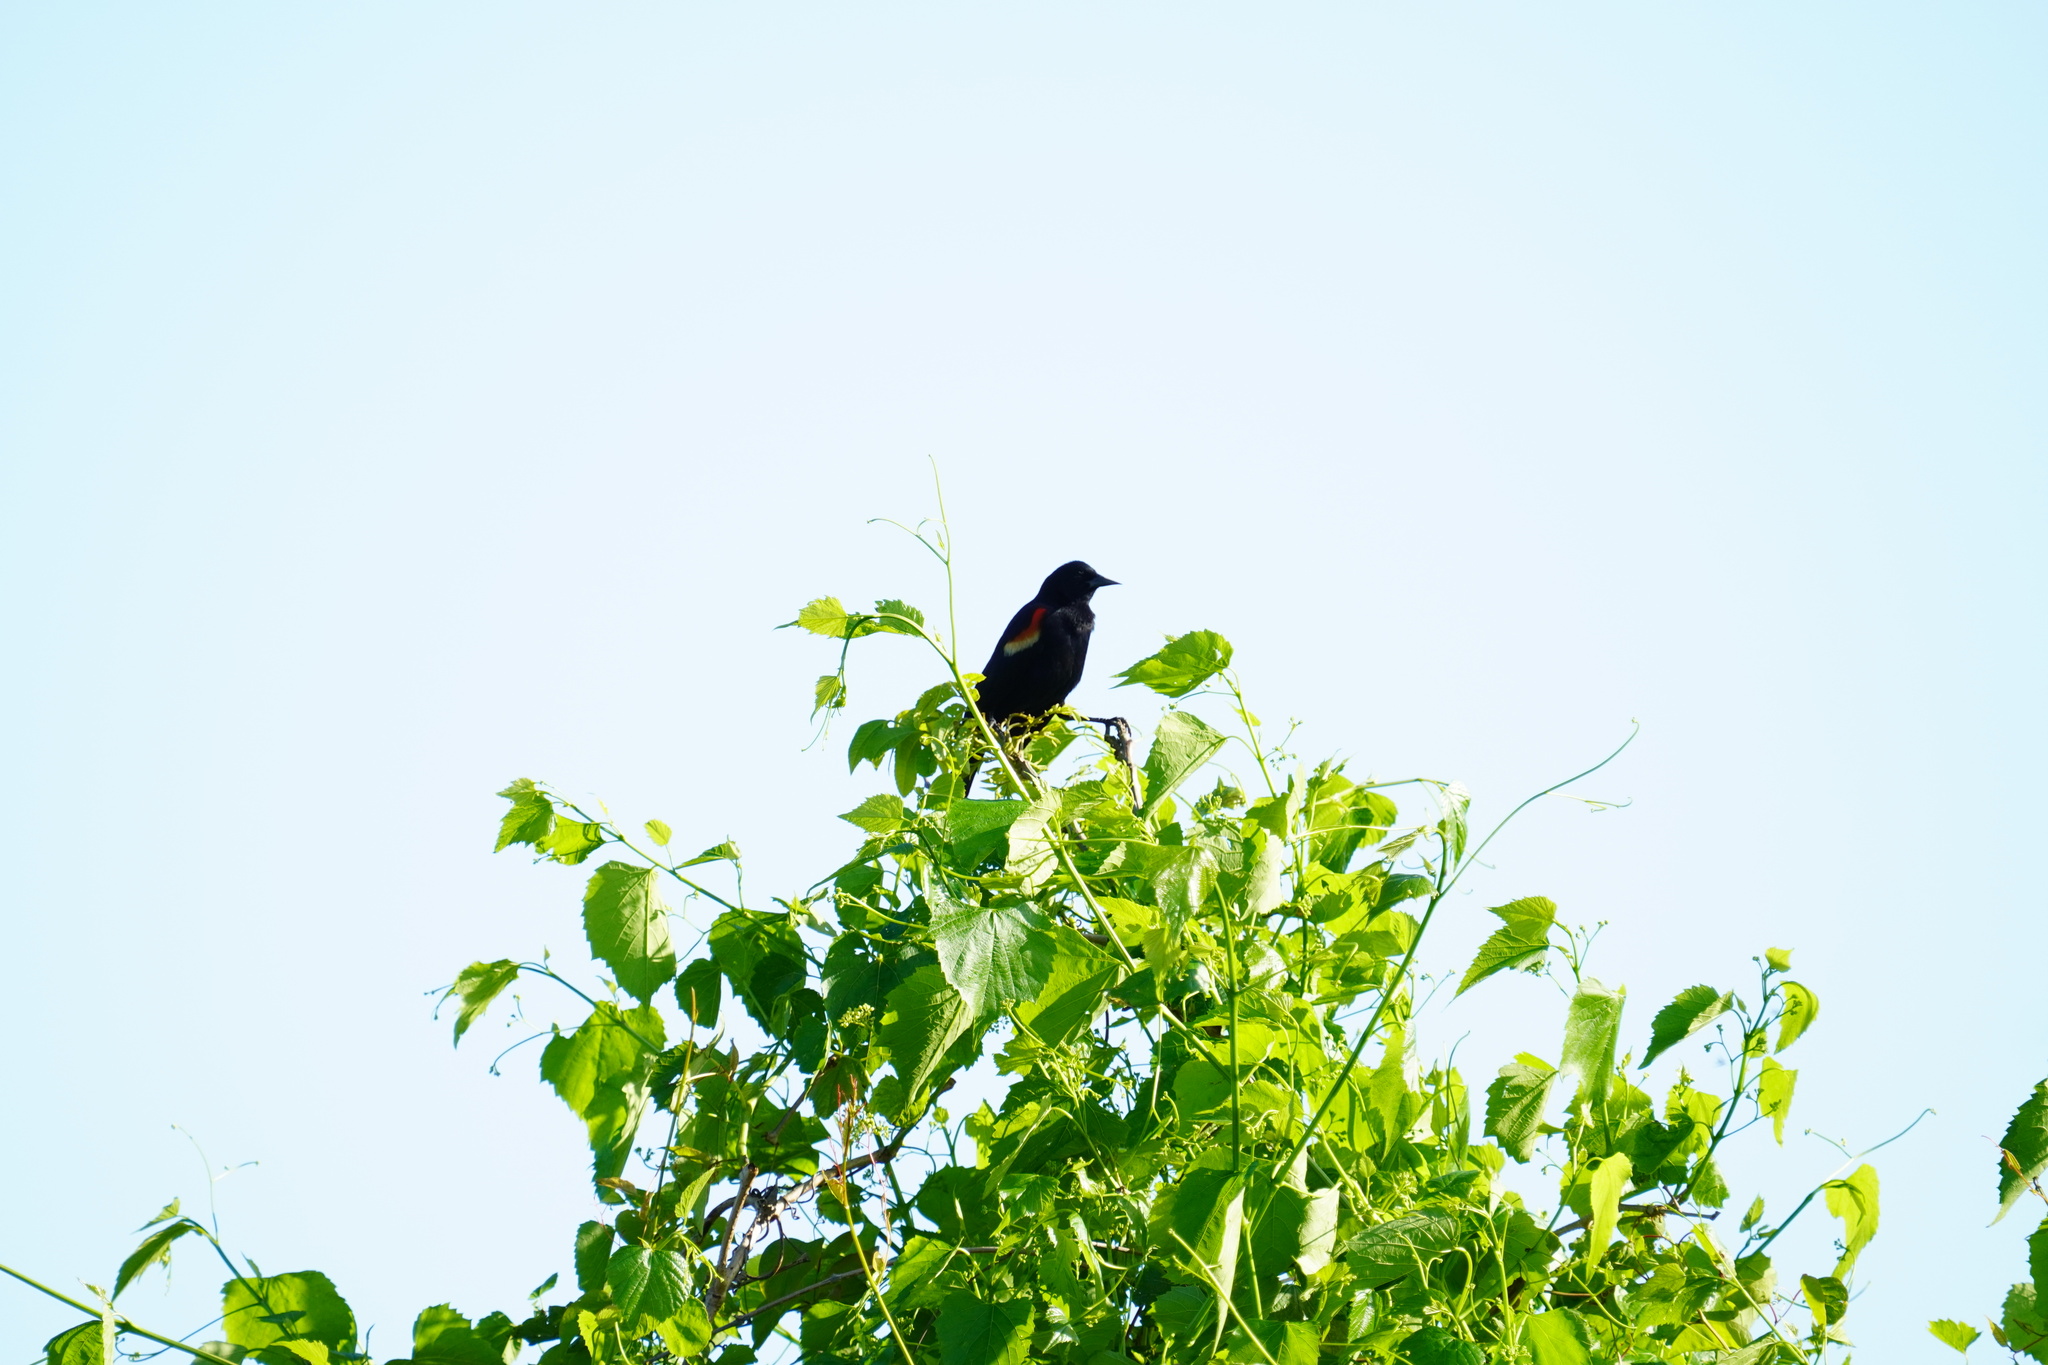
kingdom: Animalia
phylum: Chordata
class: Aves
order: Passeriformes
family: Icteridae
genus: Agelaius
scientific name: Agelaius phoeniceus
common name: Red-winged blackbird
